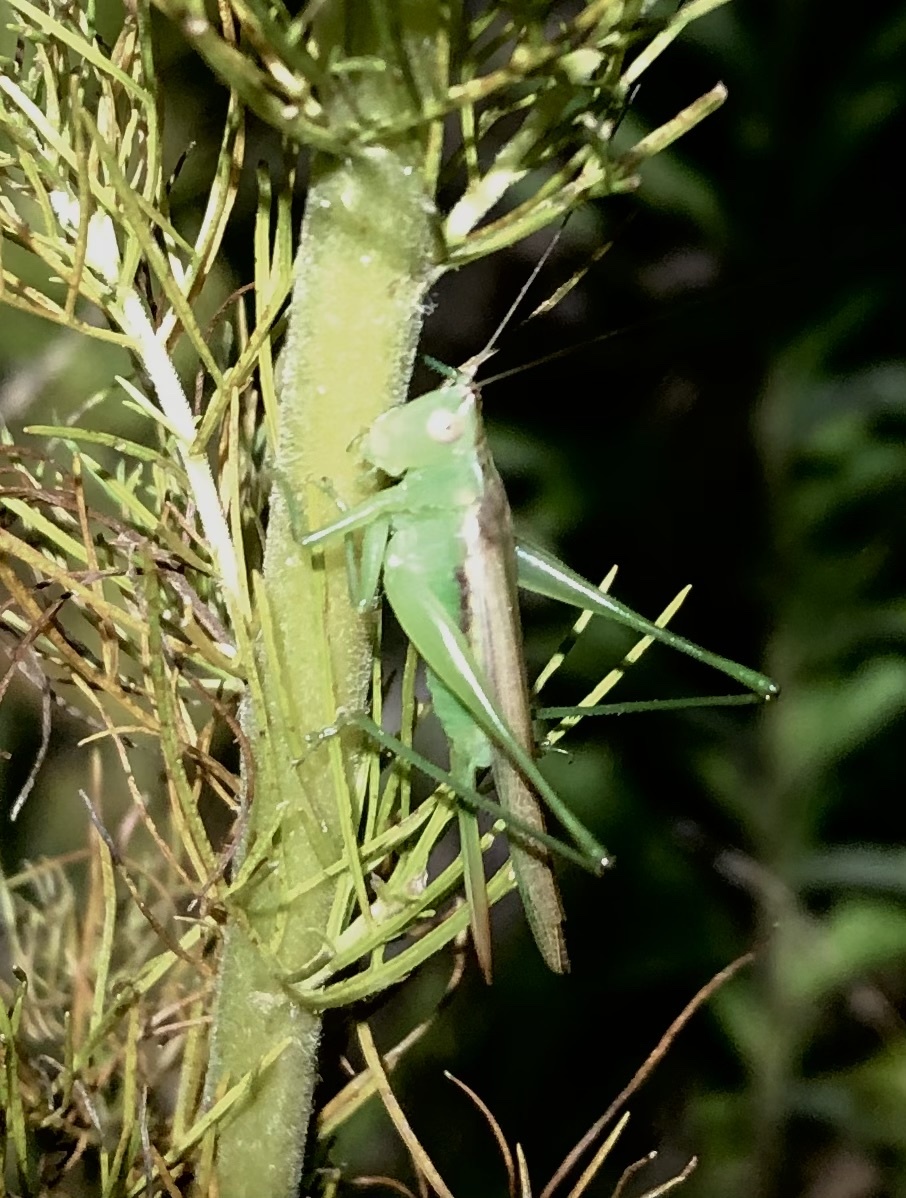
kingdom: Animalia
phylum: Arthropoda
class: Insecta
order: Orthoptera
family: Tettigoniidae
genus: Conocephalus
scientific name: Conocephalus fasciatus
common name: Slender meadow katydid
